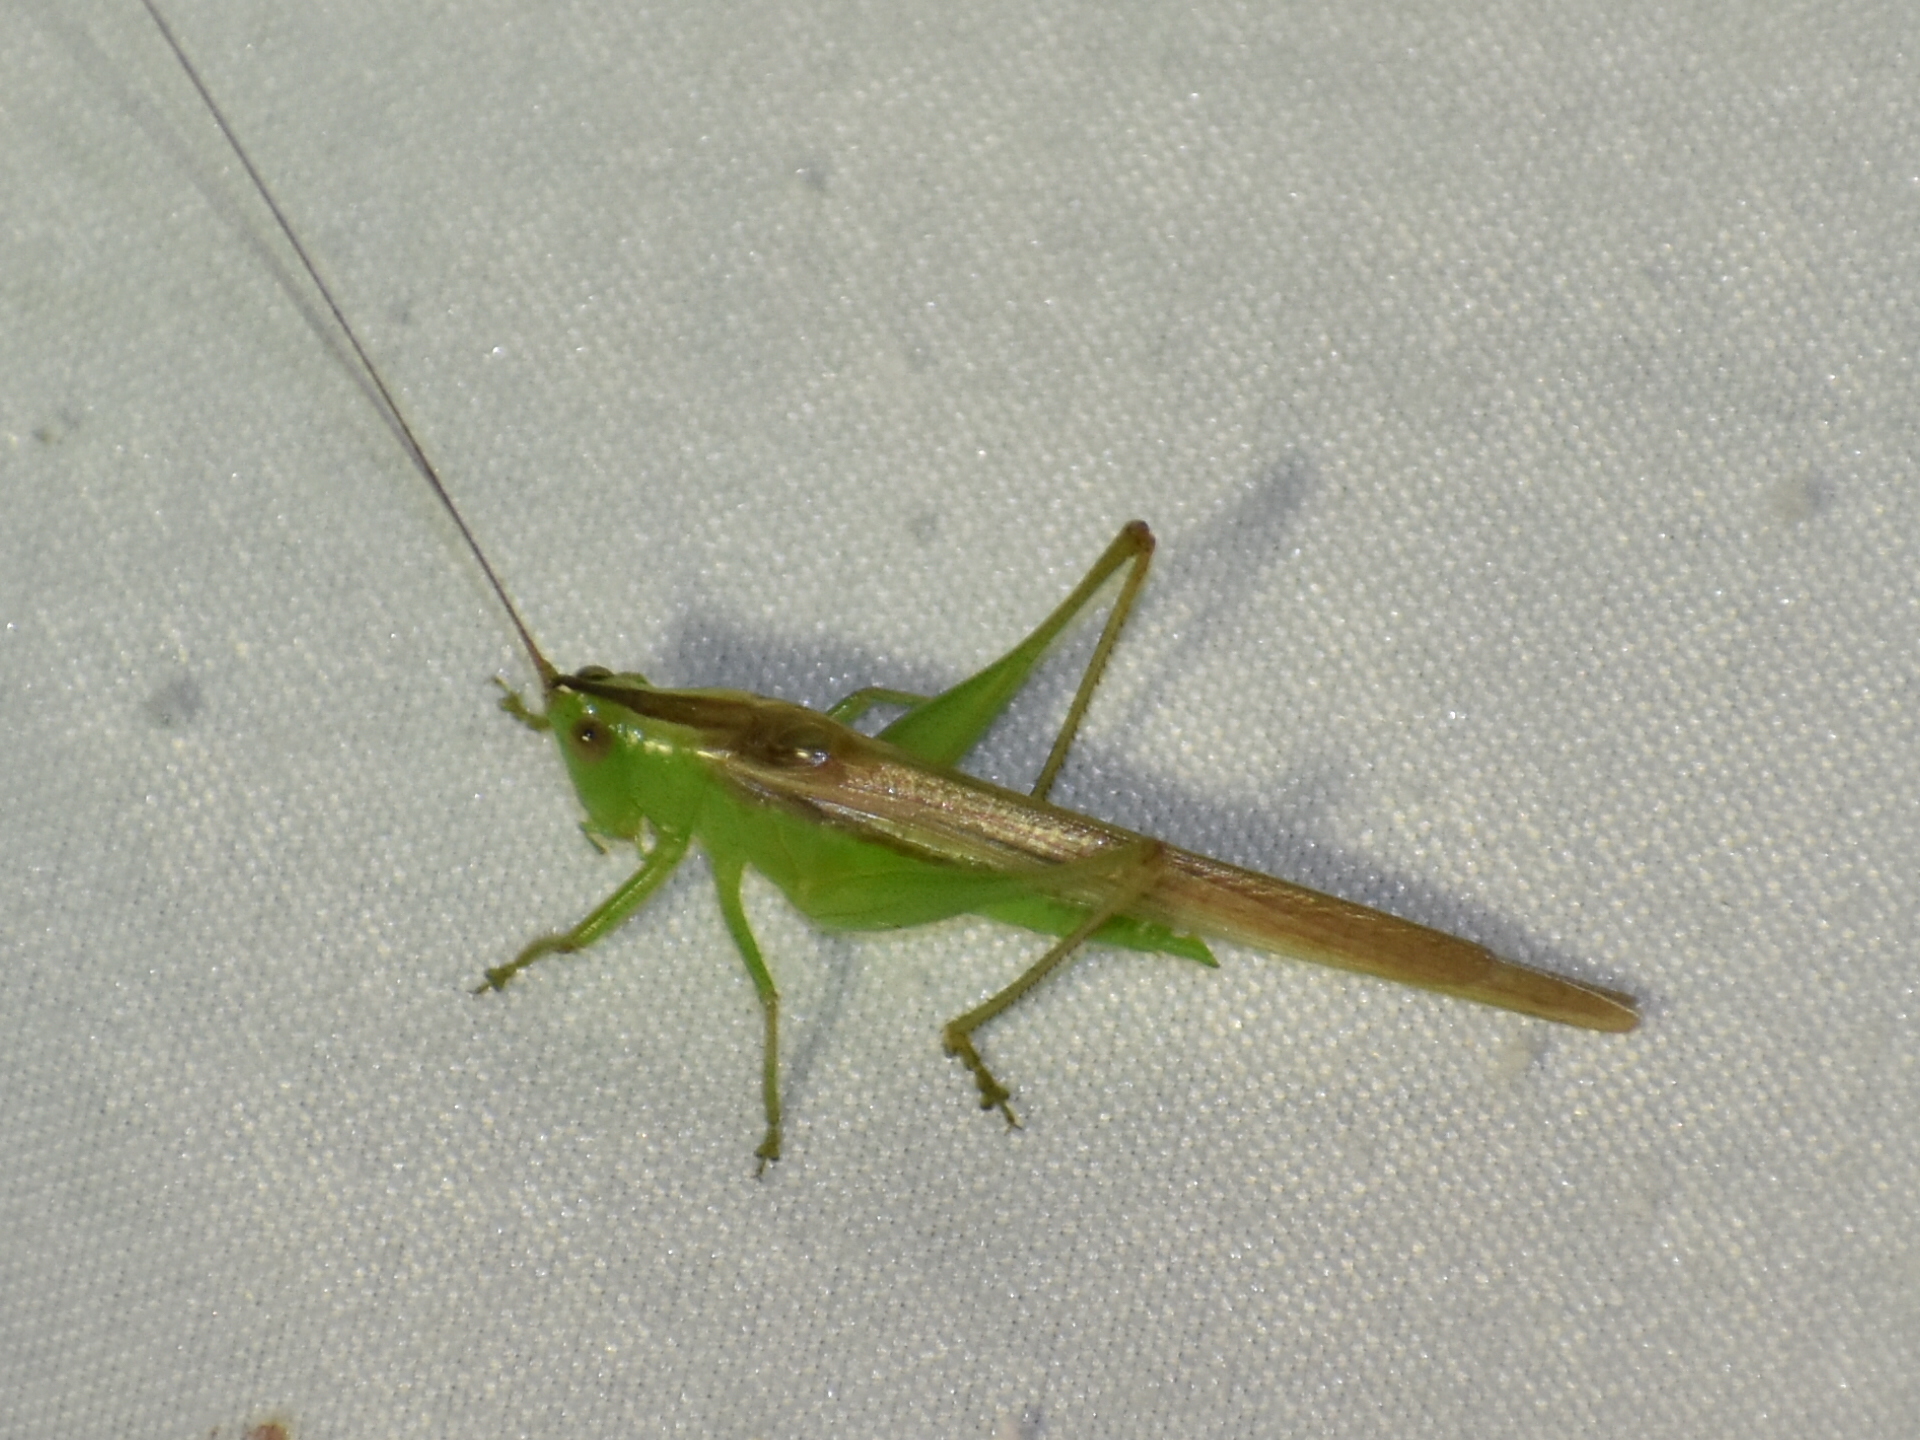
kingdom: Animalia
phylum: Arthropoda
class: Insecta
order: Orthoptera
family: Tettigoniidae
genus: Conocephalus
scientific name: Conocephalus fasciatus
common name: Slender meadow katydid
